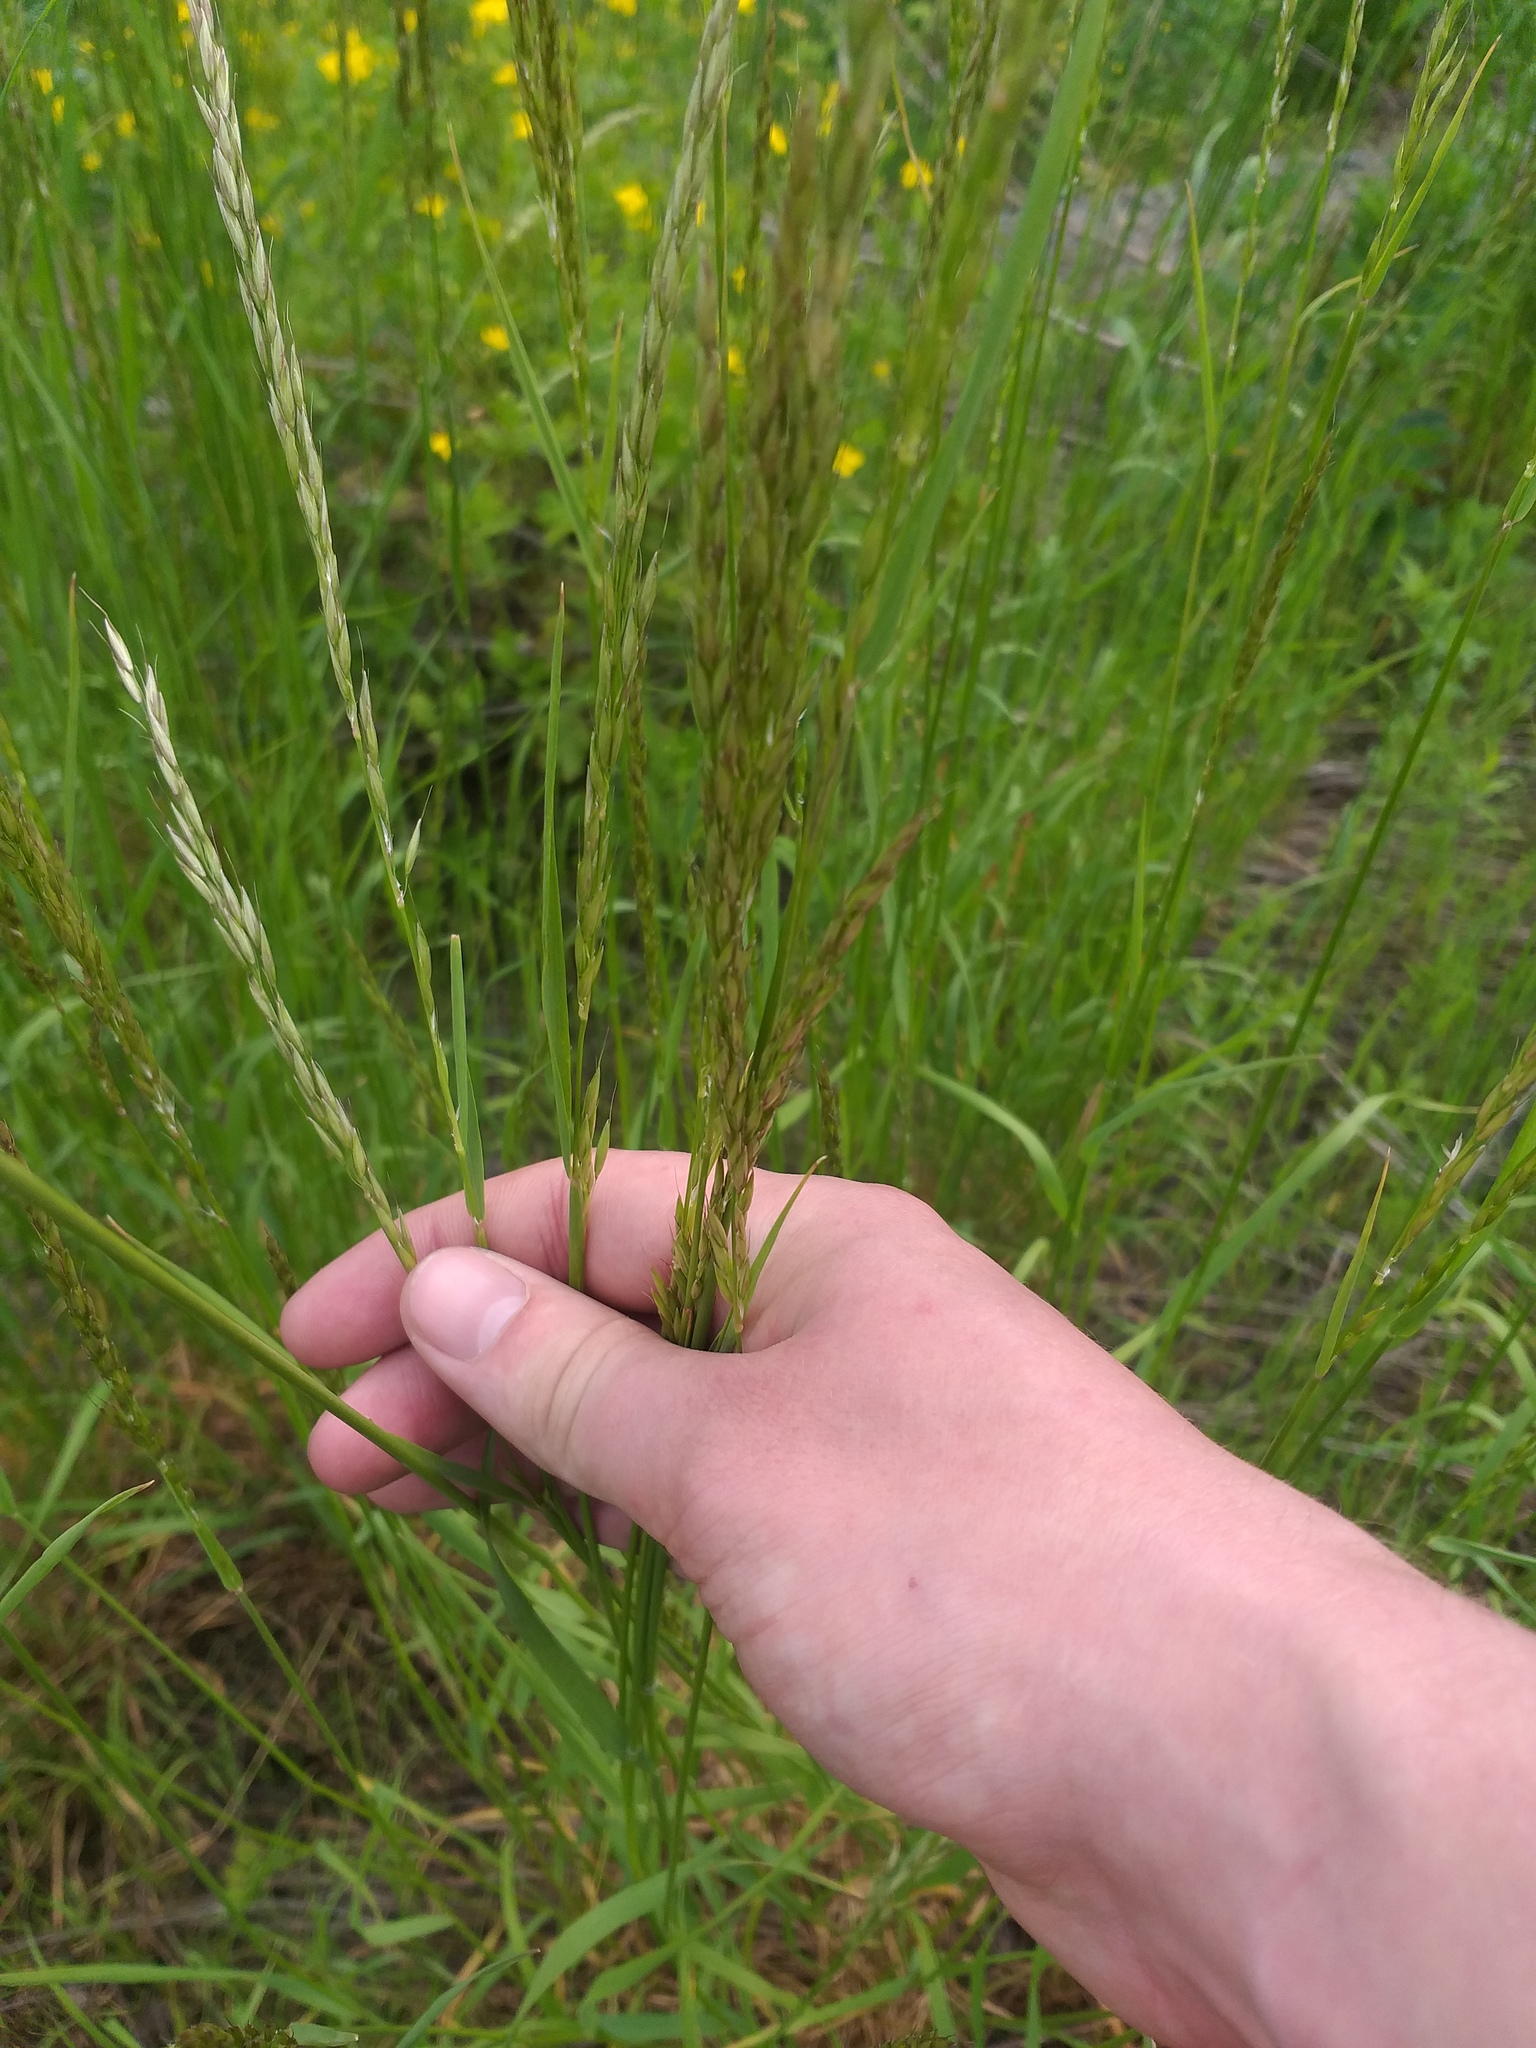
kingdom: Plantae
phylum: Tracheophyta
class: Liliopsida
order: Poales
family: Poaceae
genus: Arrhenatherum
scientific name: Arrhenatherum elatius
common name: Tall oatgrass
